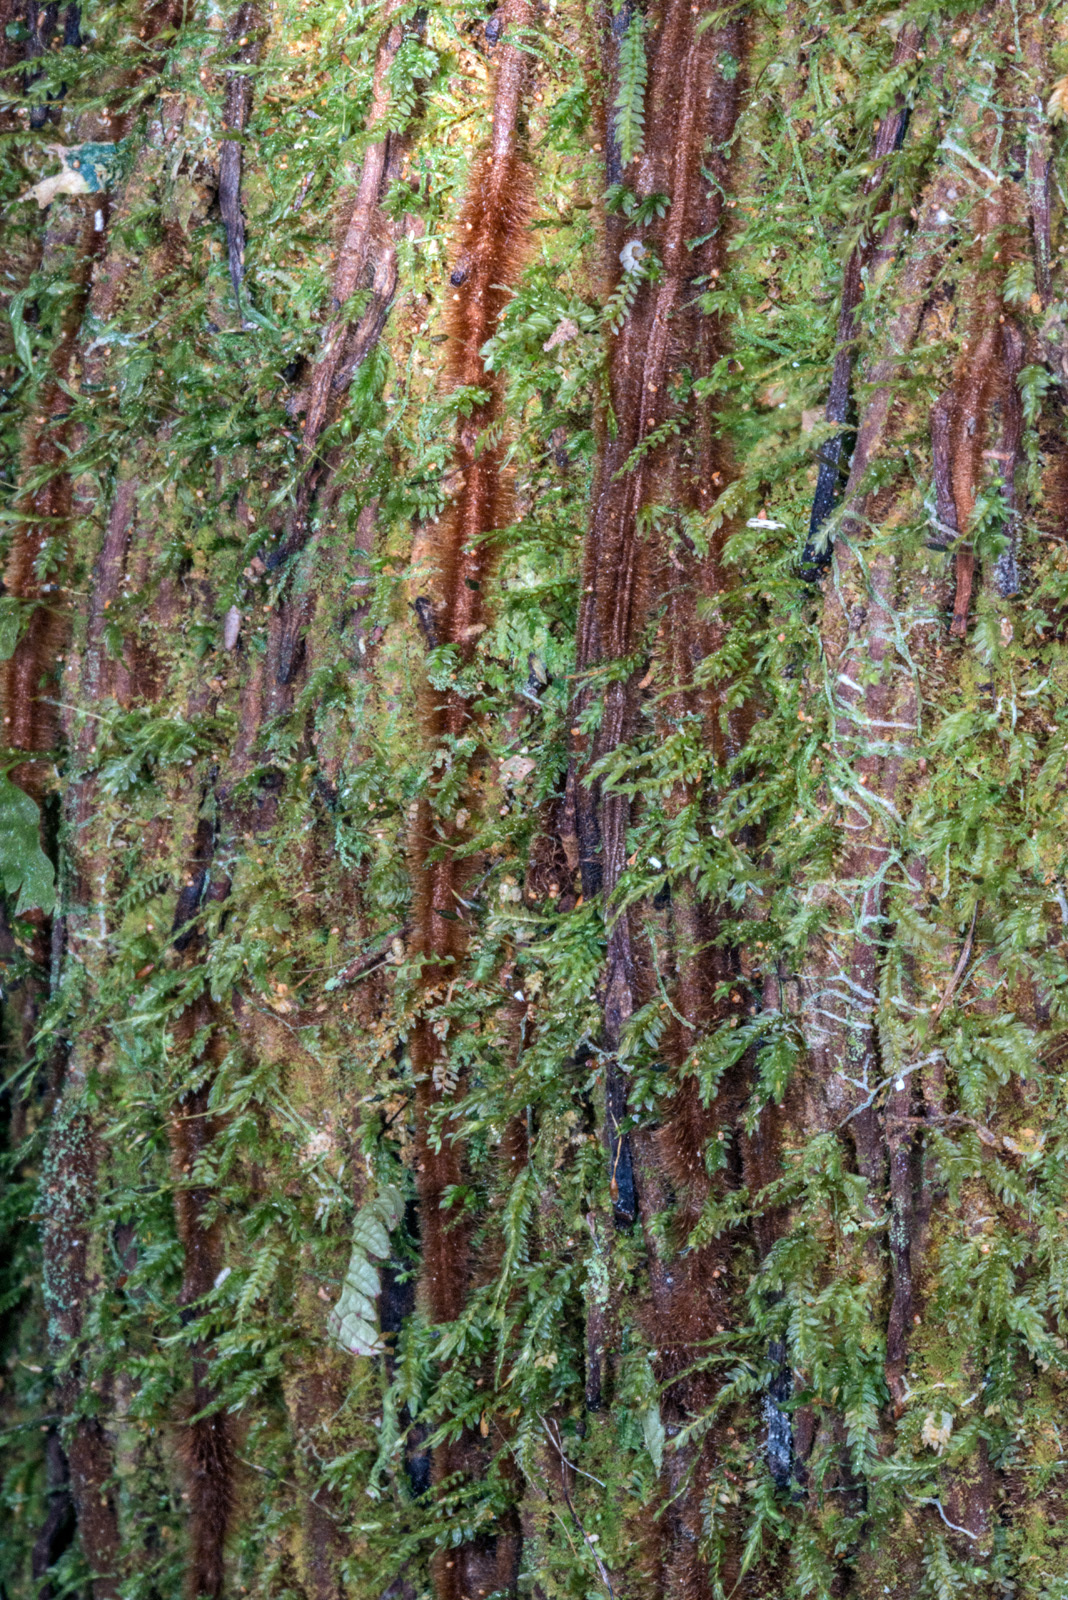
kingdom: Plantae
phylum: Bryophyta
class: Bryopsida
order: Rhizogoniales
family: Calomniaceae
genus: Calomnion
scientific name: Calomnion complanatum
